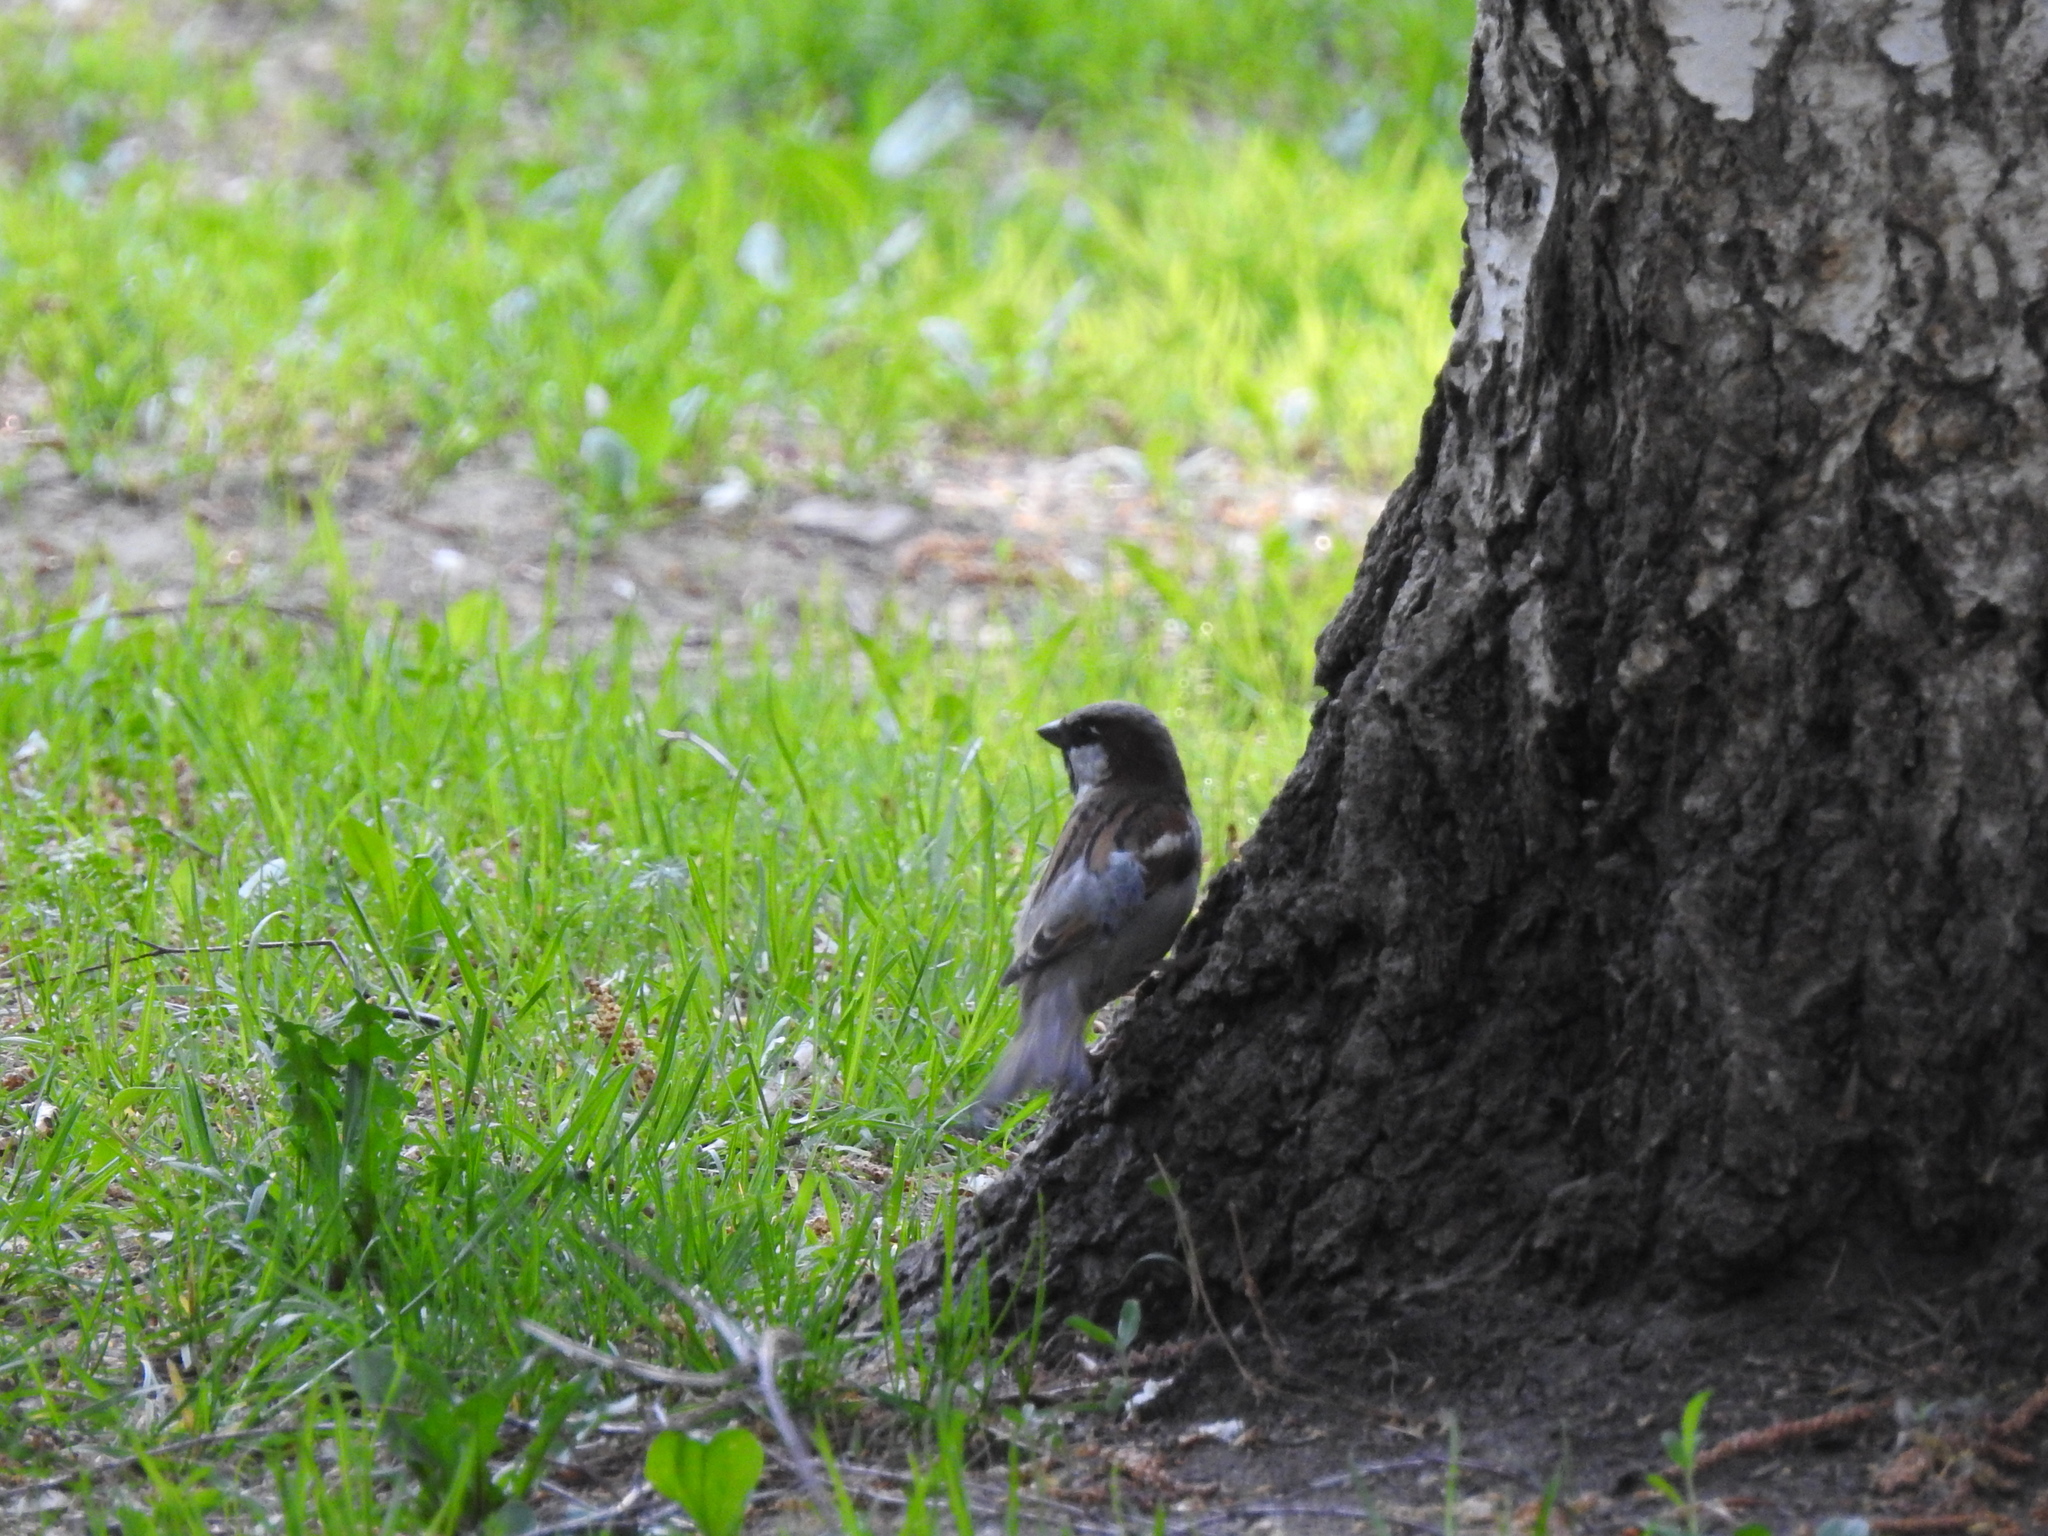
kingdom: Animalia
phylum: Chordata
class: Aves
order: Passeriformes
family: Passeridae
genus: Passer
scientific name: Passer domesticus
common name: House sparrow
